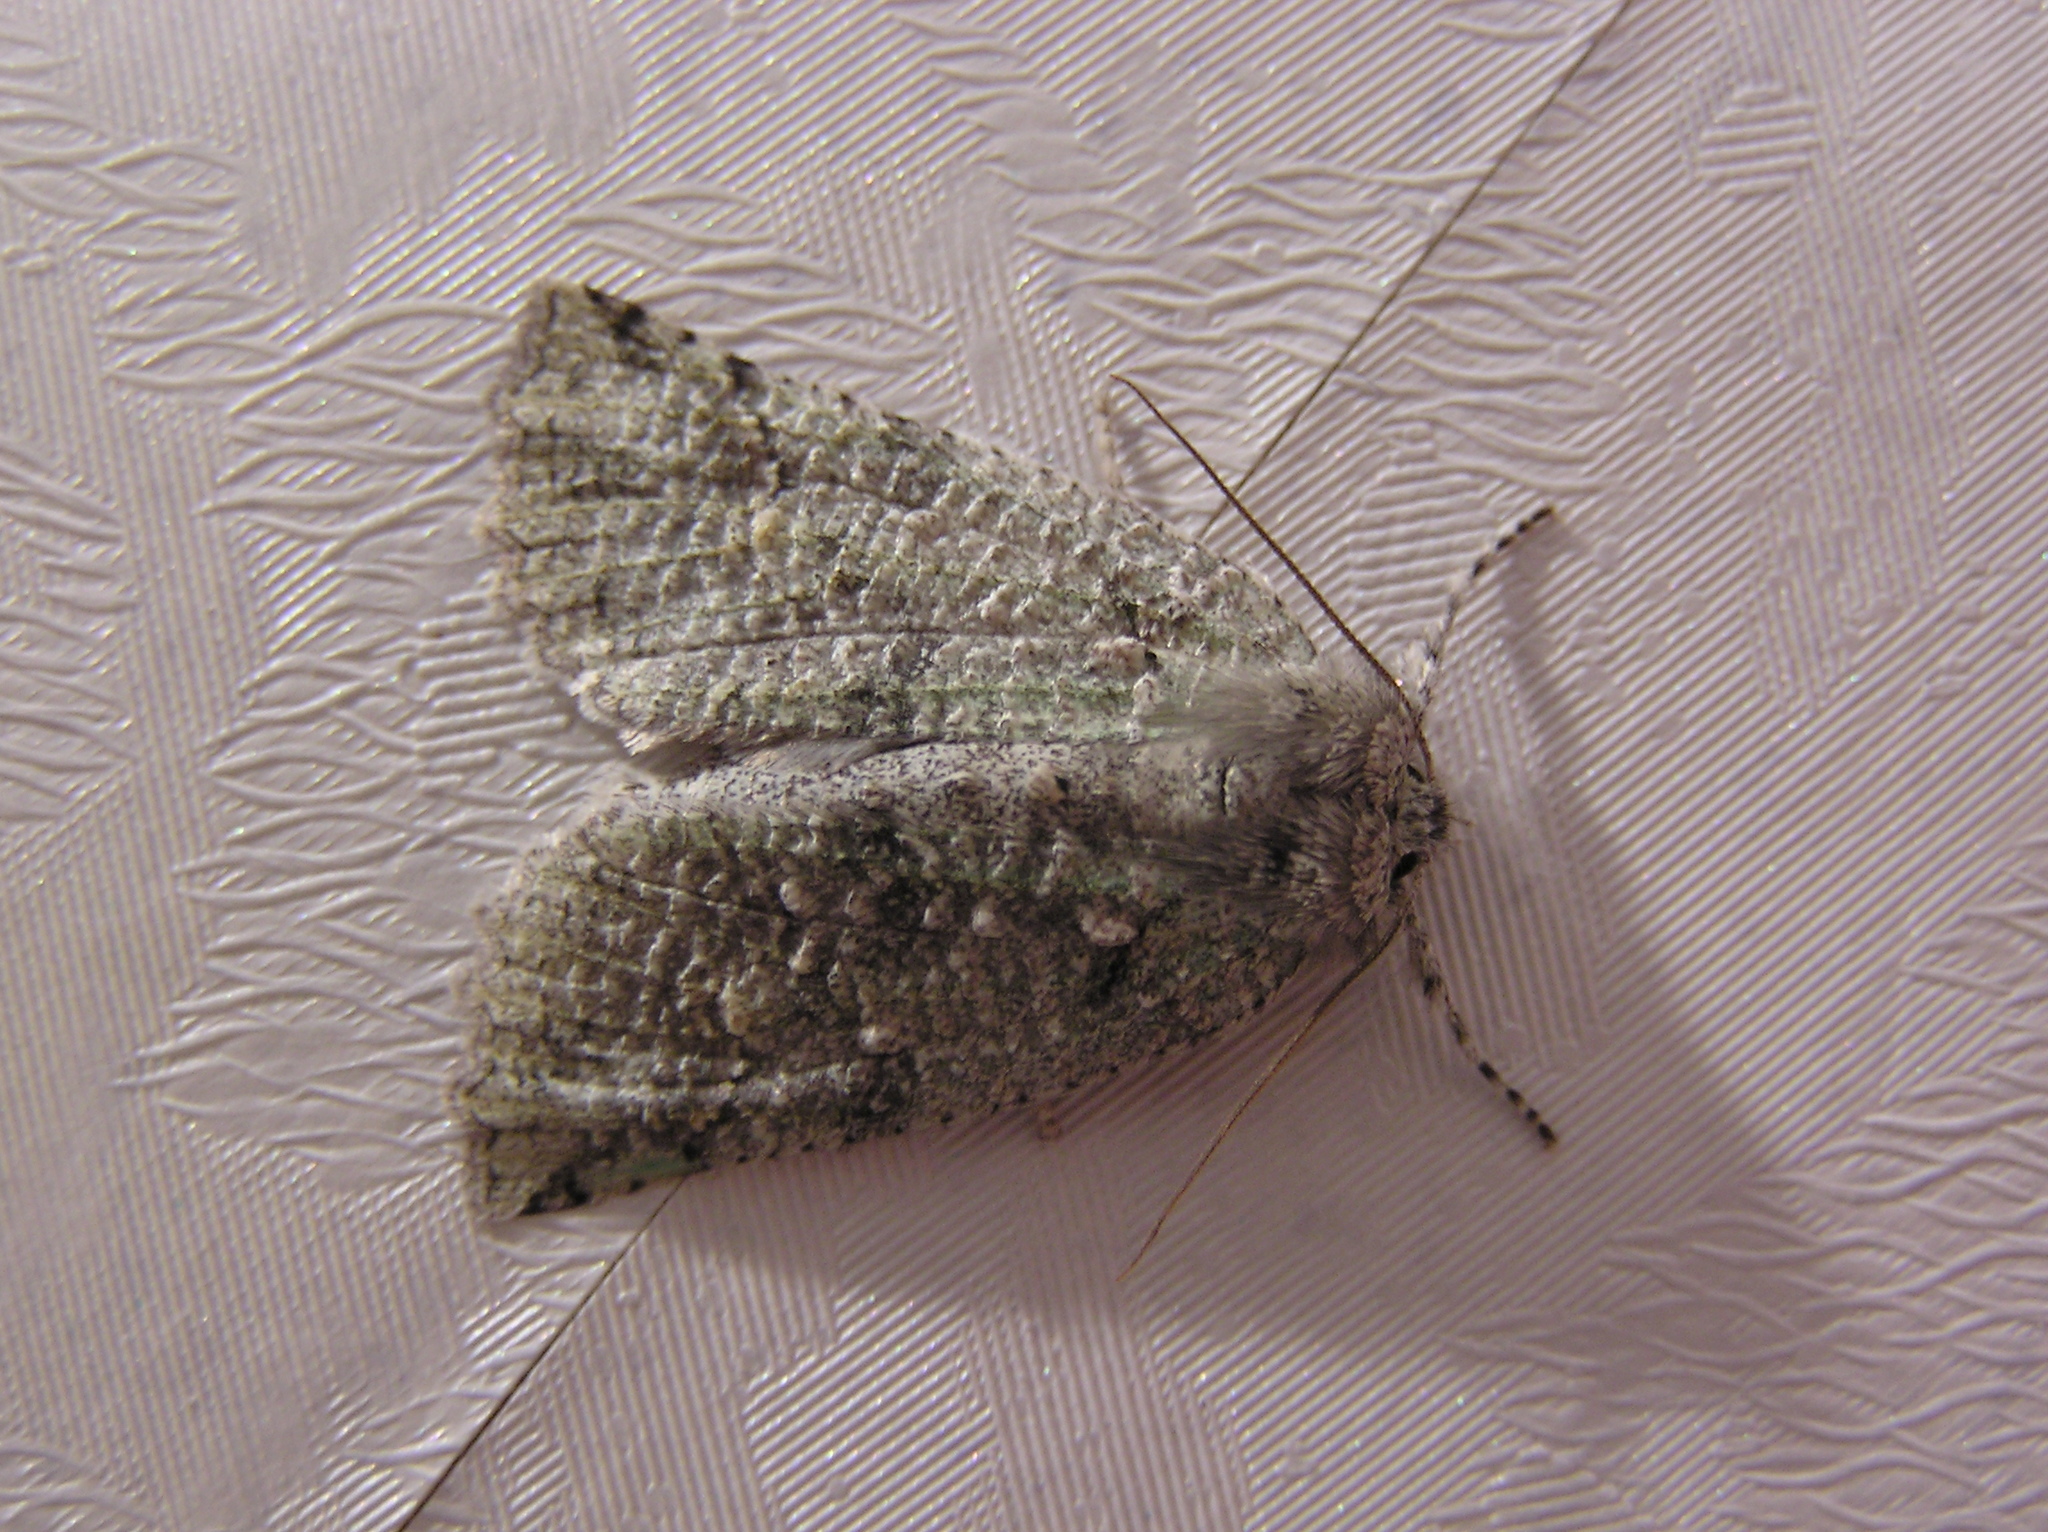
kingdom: Animalia
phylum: Arthropoda
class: Insecta
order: Lepidoptera
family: Geometridae
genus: Declana
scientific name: Declana floccosa
